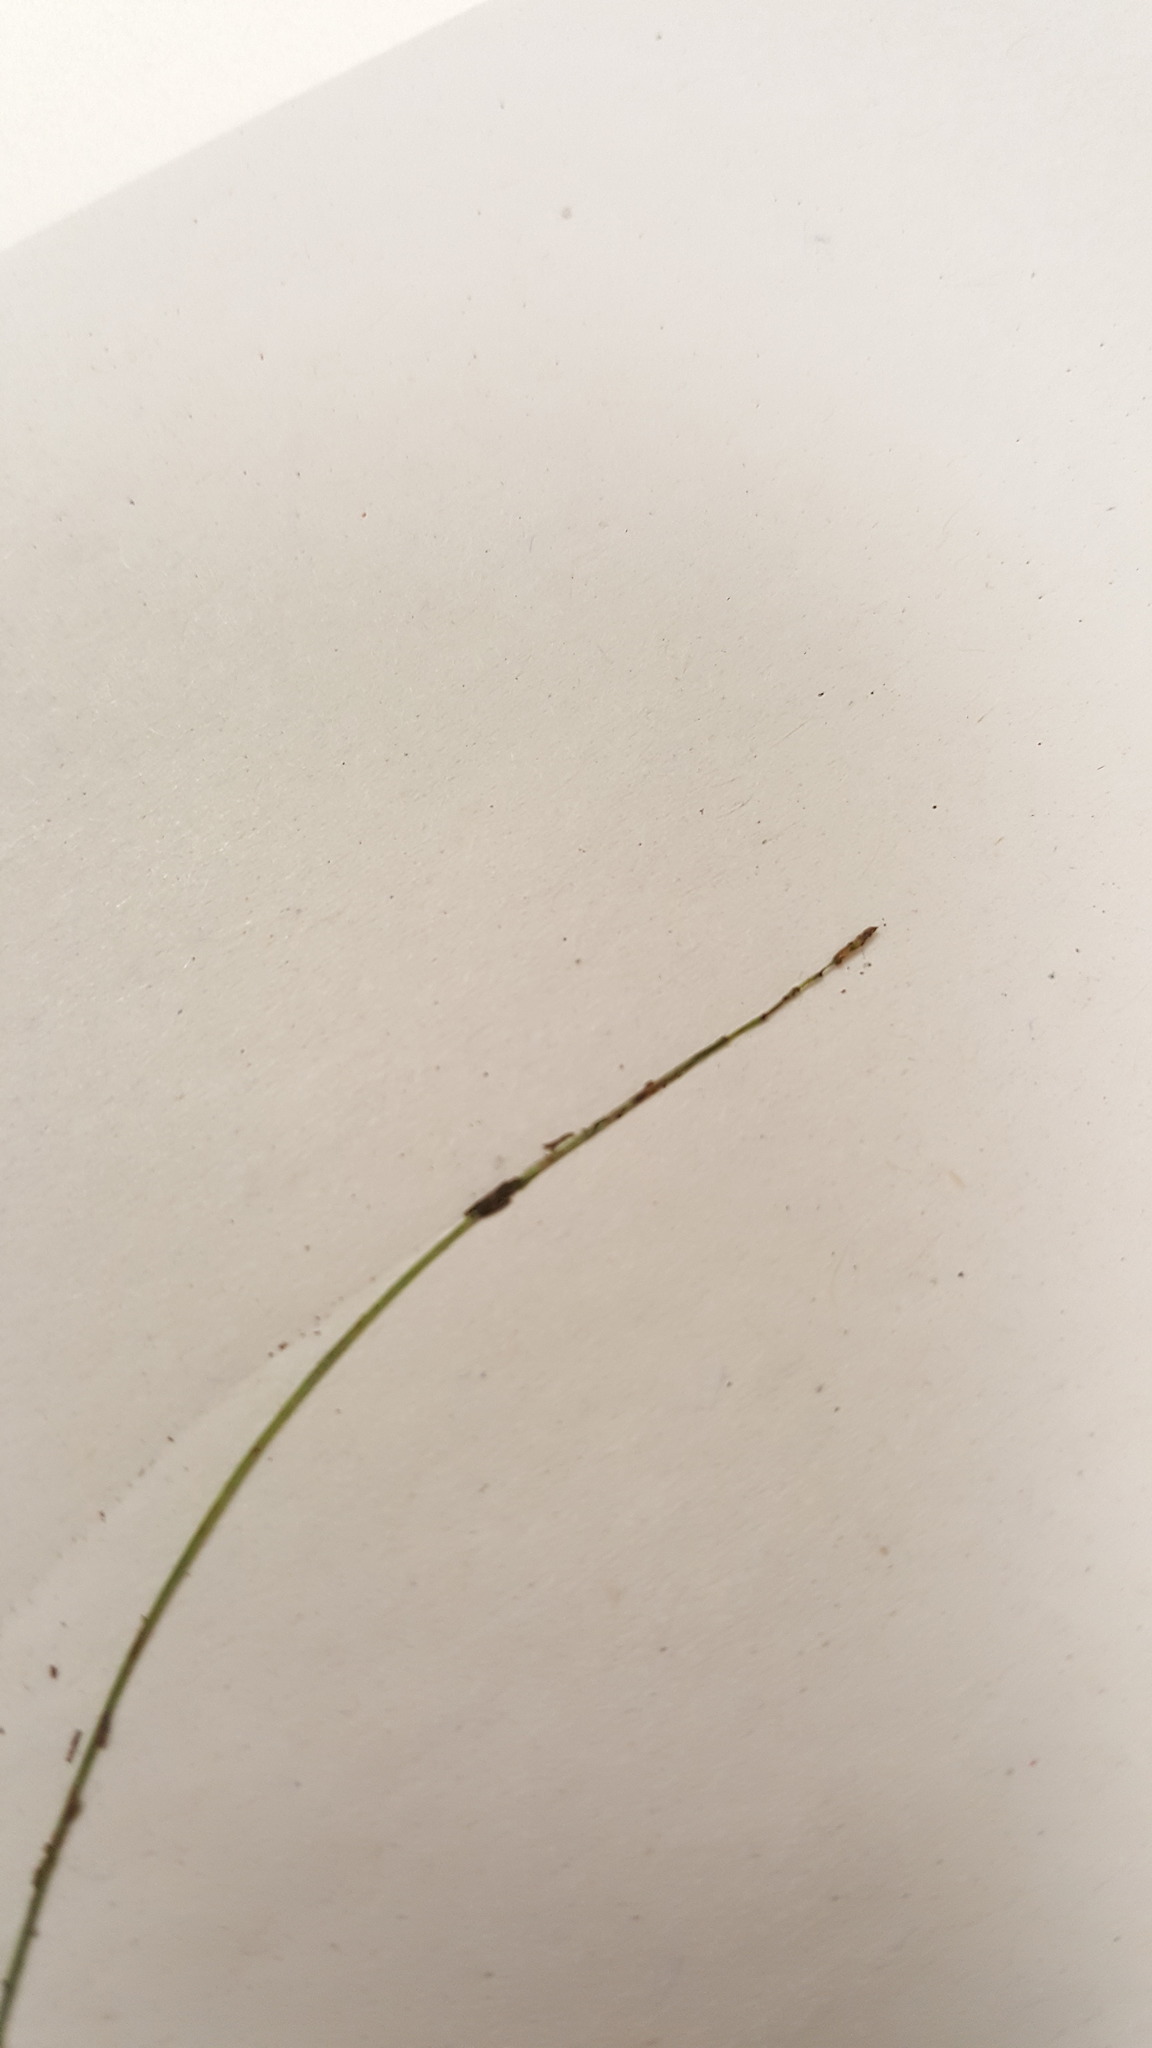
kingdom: Plantae
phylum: Tracheophyta
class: Liliopsida
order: Poales
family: Cyperaceae
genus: Carex
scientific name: Carex disperma
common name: Short-leaved sedge
